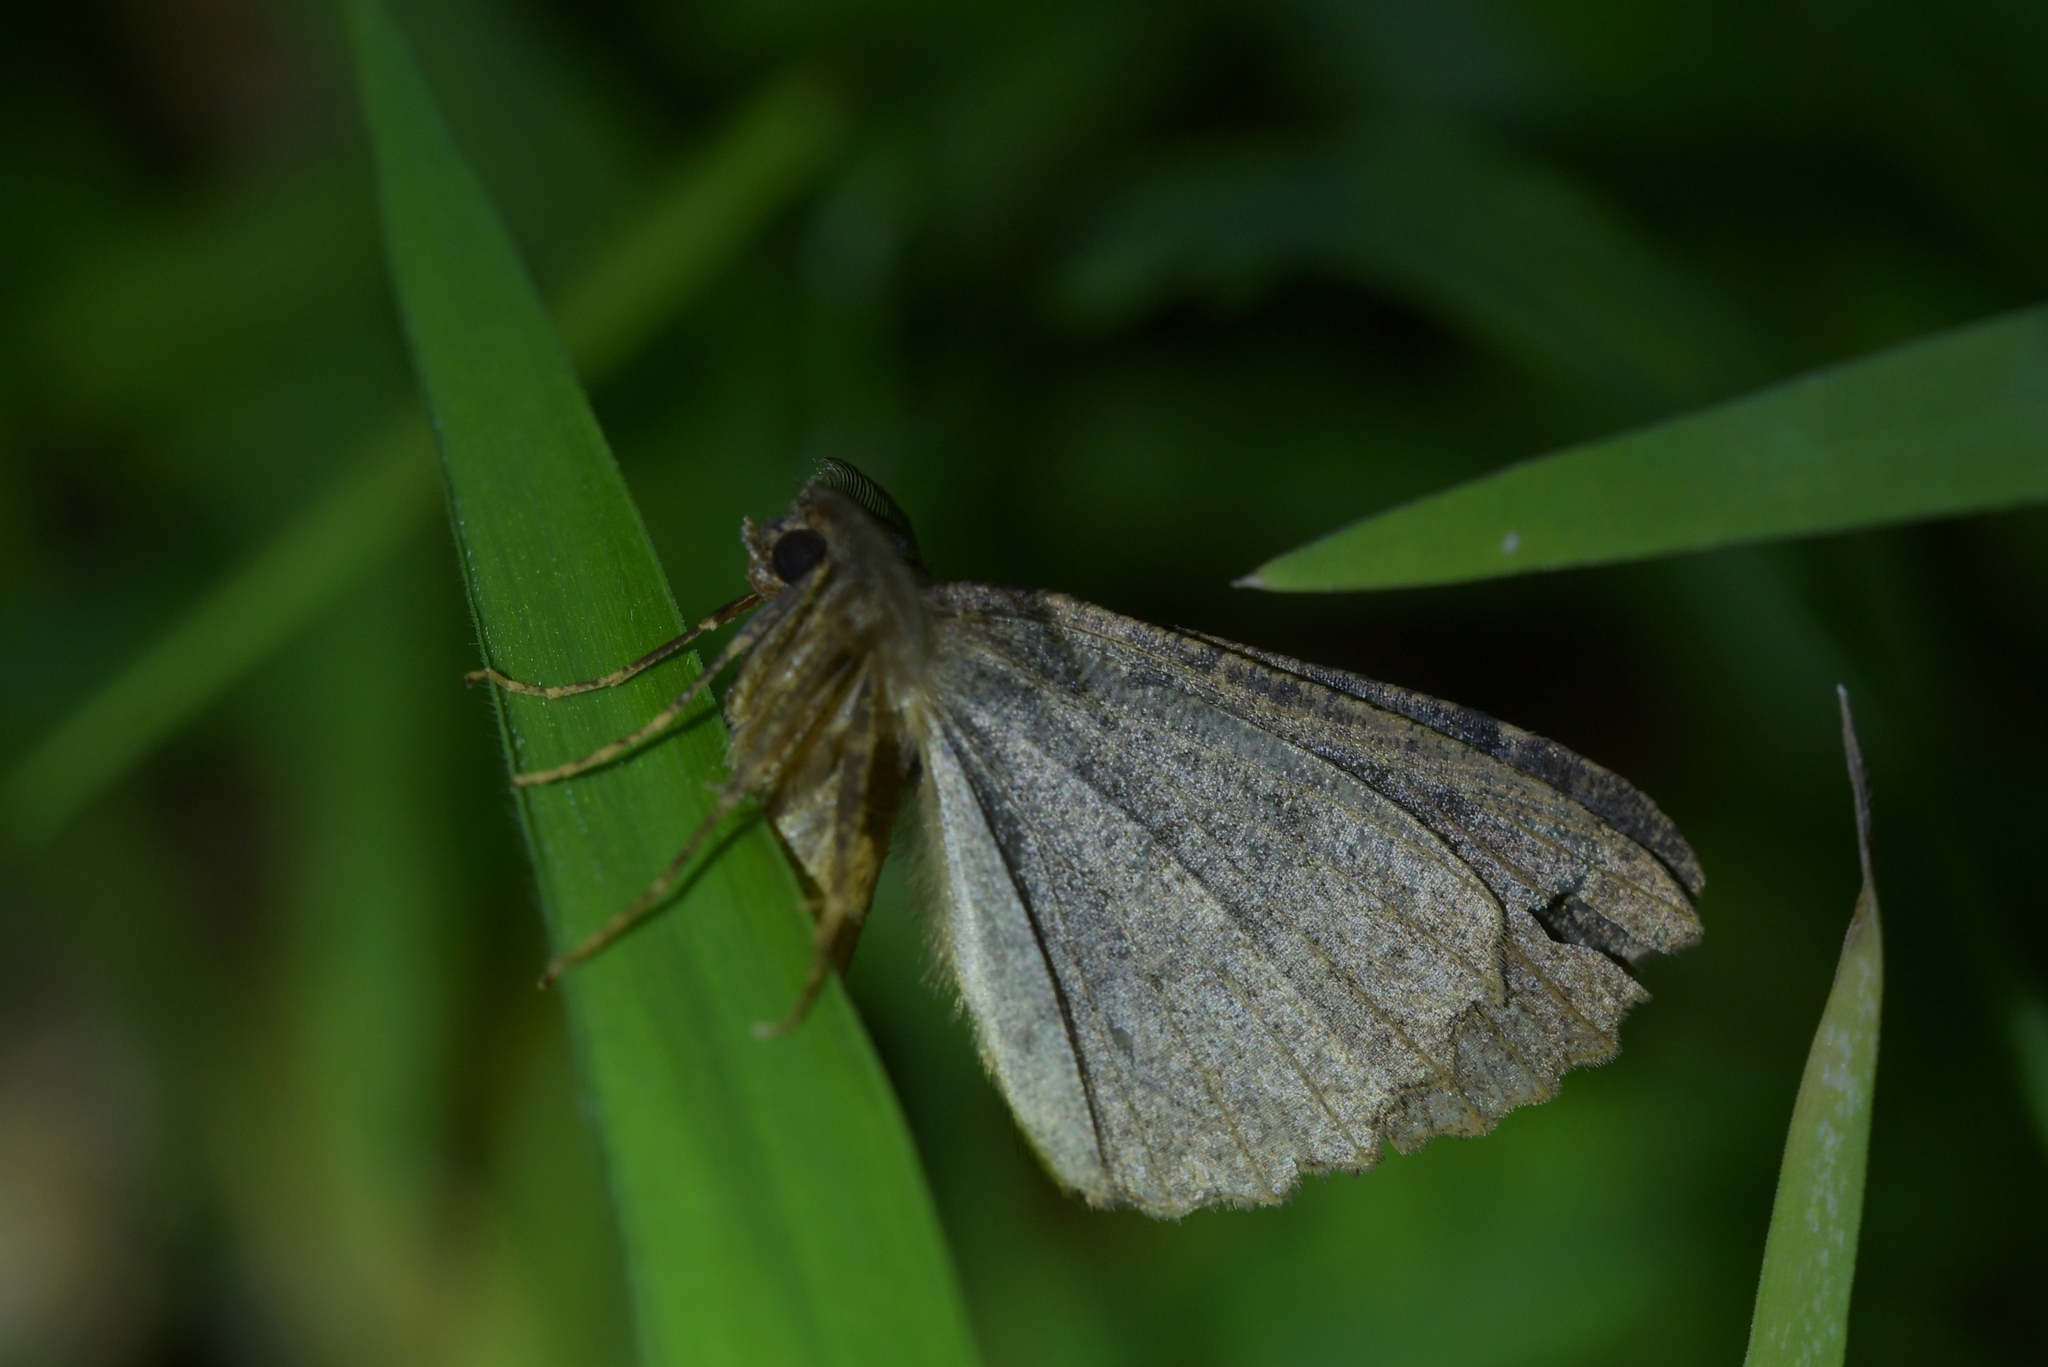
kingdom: Animalia
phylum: Arthropoda
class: Insecta
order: Lepidoptera
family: Geometridae
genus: Cleora
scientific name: Cleora scriptaria
